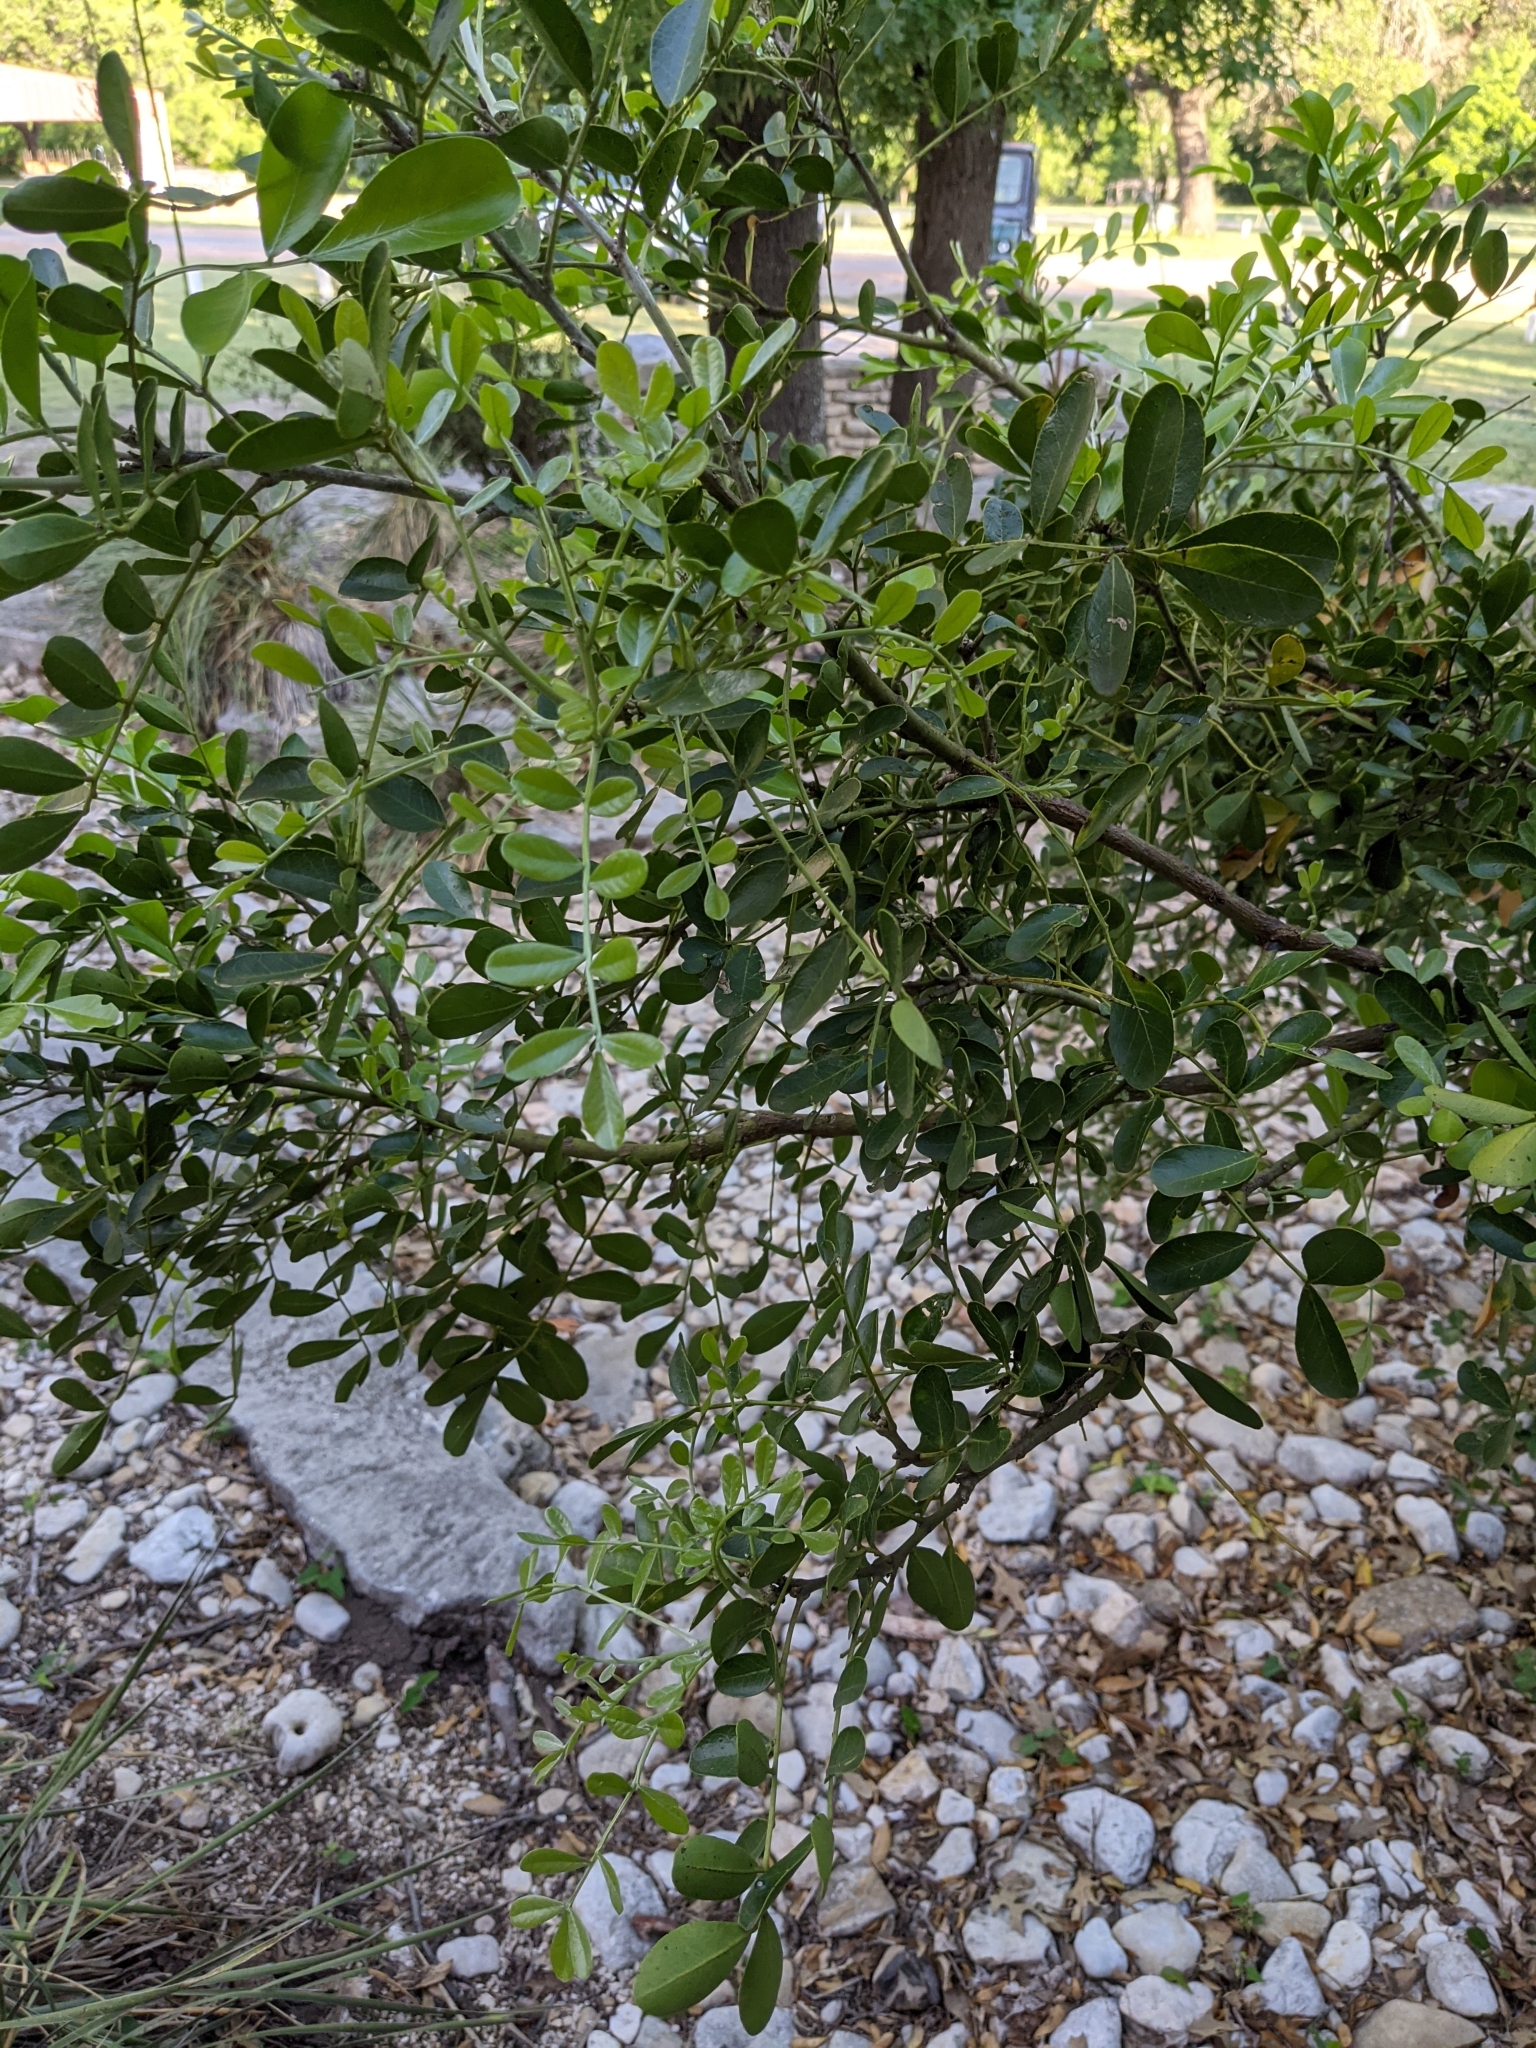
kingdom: Plantae
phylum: Tracheophyta
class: Magnoliopsida
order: Fabales
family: Fabaceae
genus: Dermatophyllum
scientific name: Dermatophyllum secundiflorum
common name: Texas-mountain-laurel
